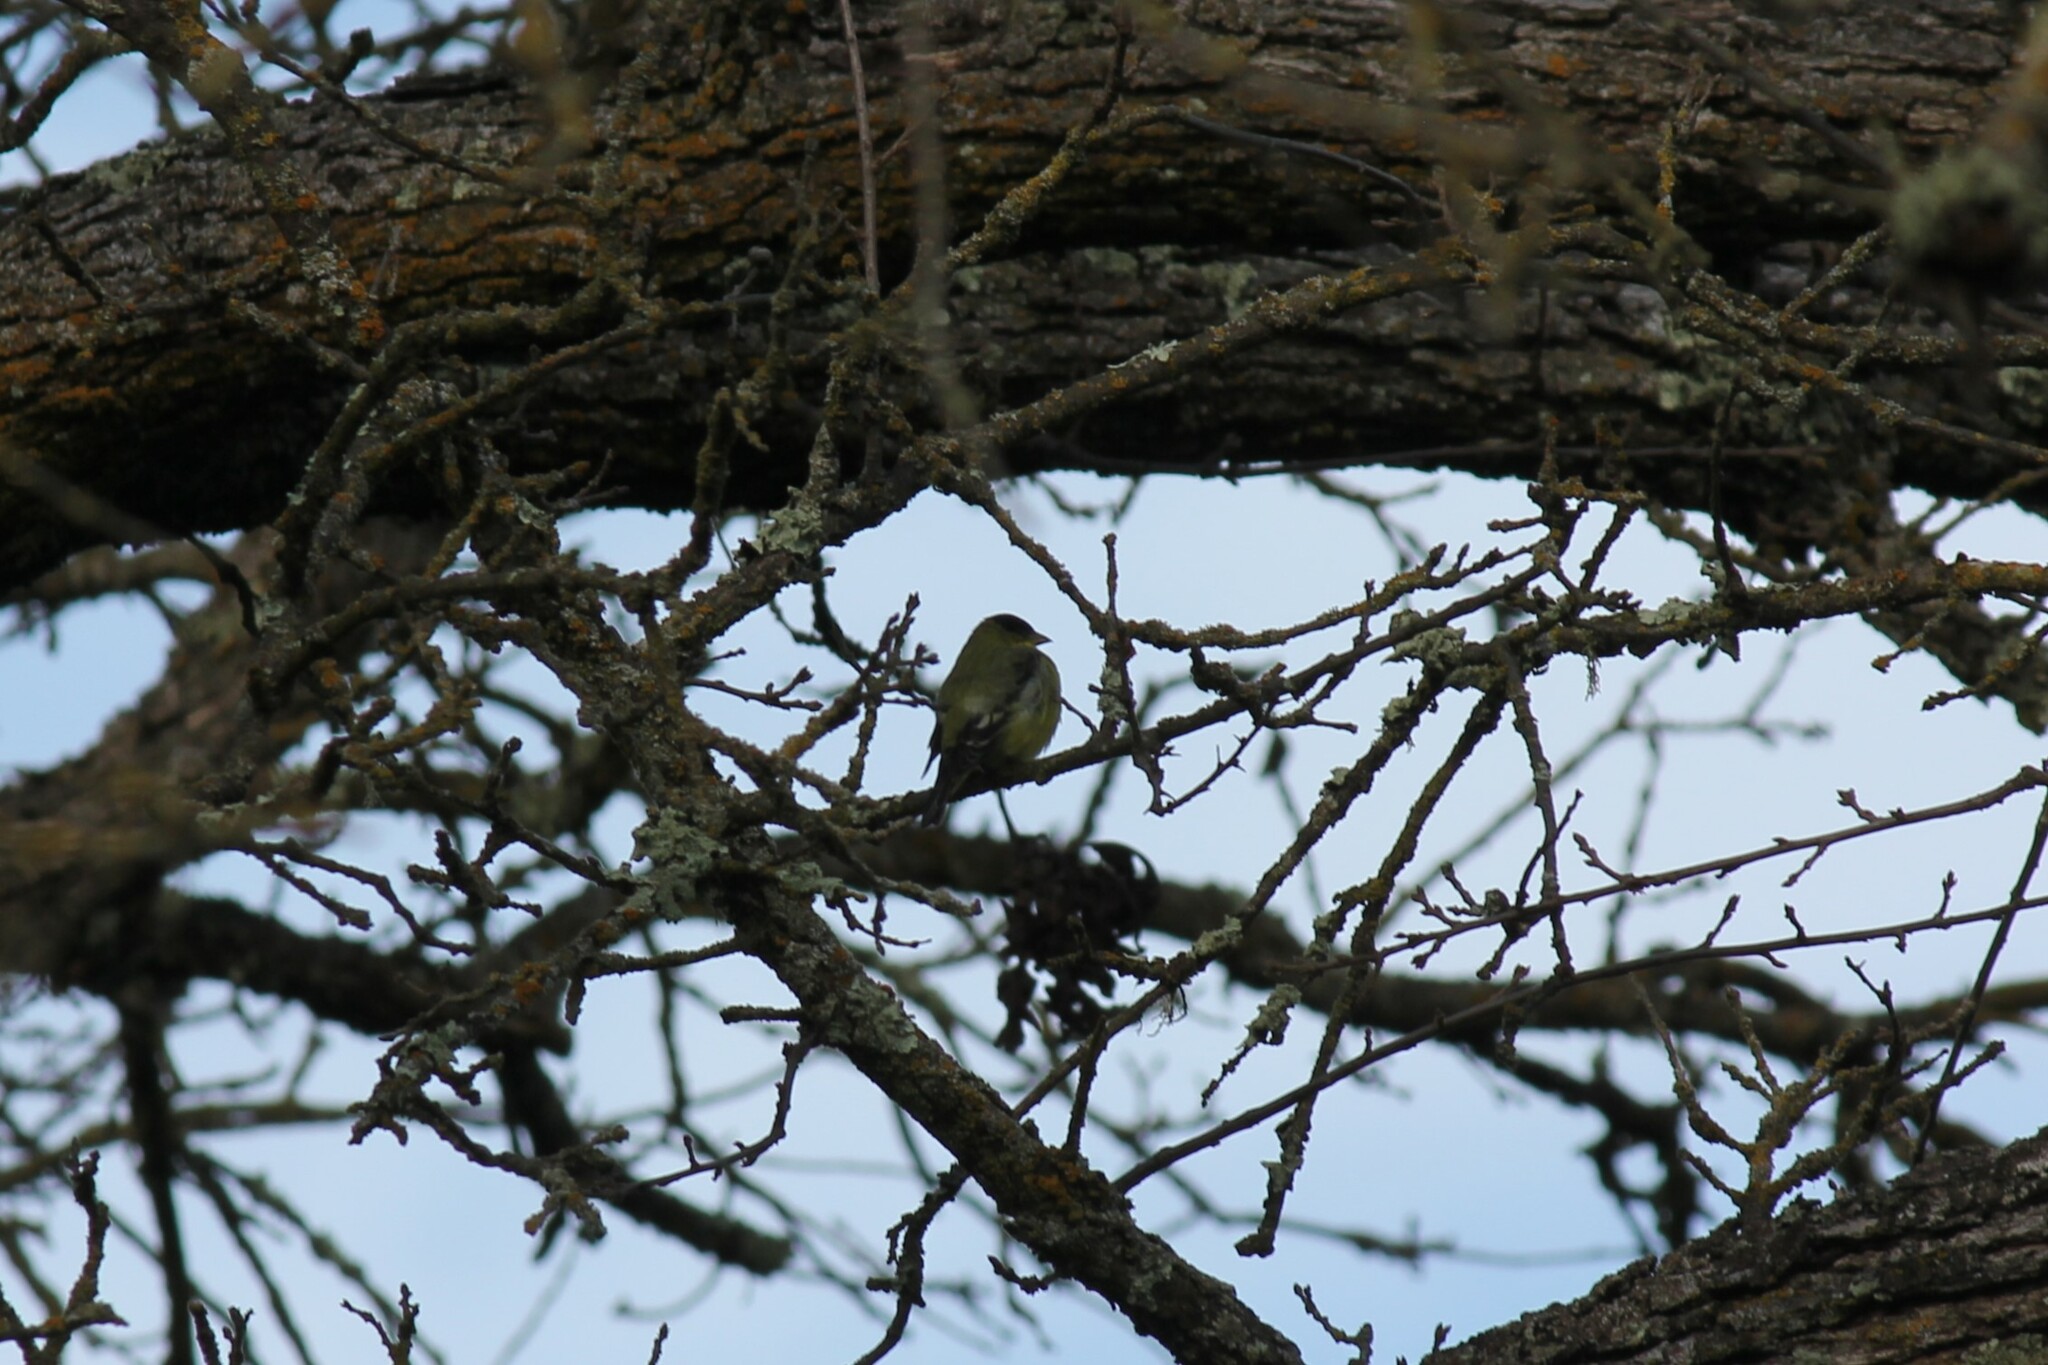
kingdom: Animalia
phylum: Chordata
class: Aves
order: Passeriformes
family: Fringillidae
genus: Spinus
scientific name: Spinus psaltria
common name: Lesser goldfinch
